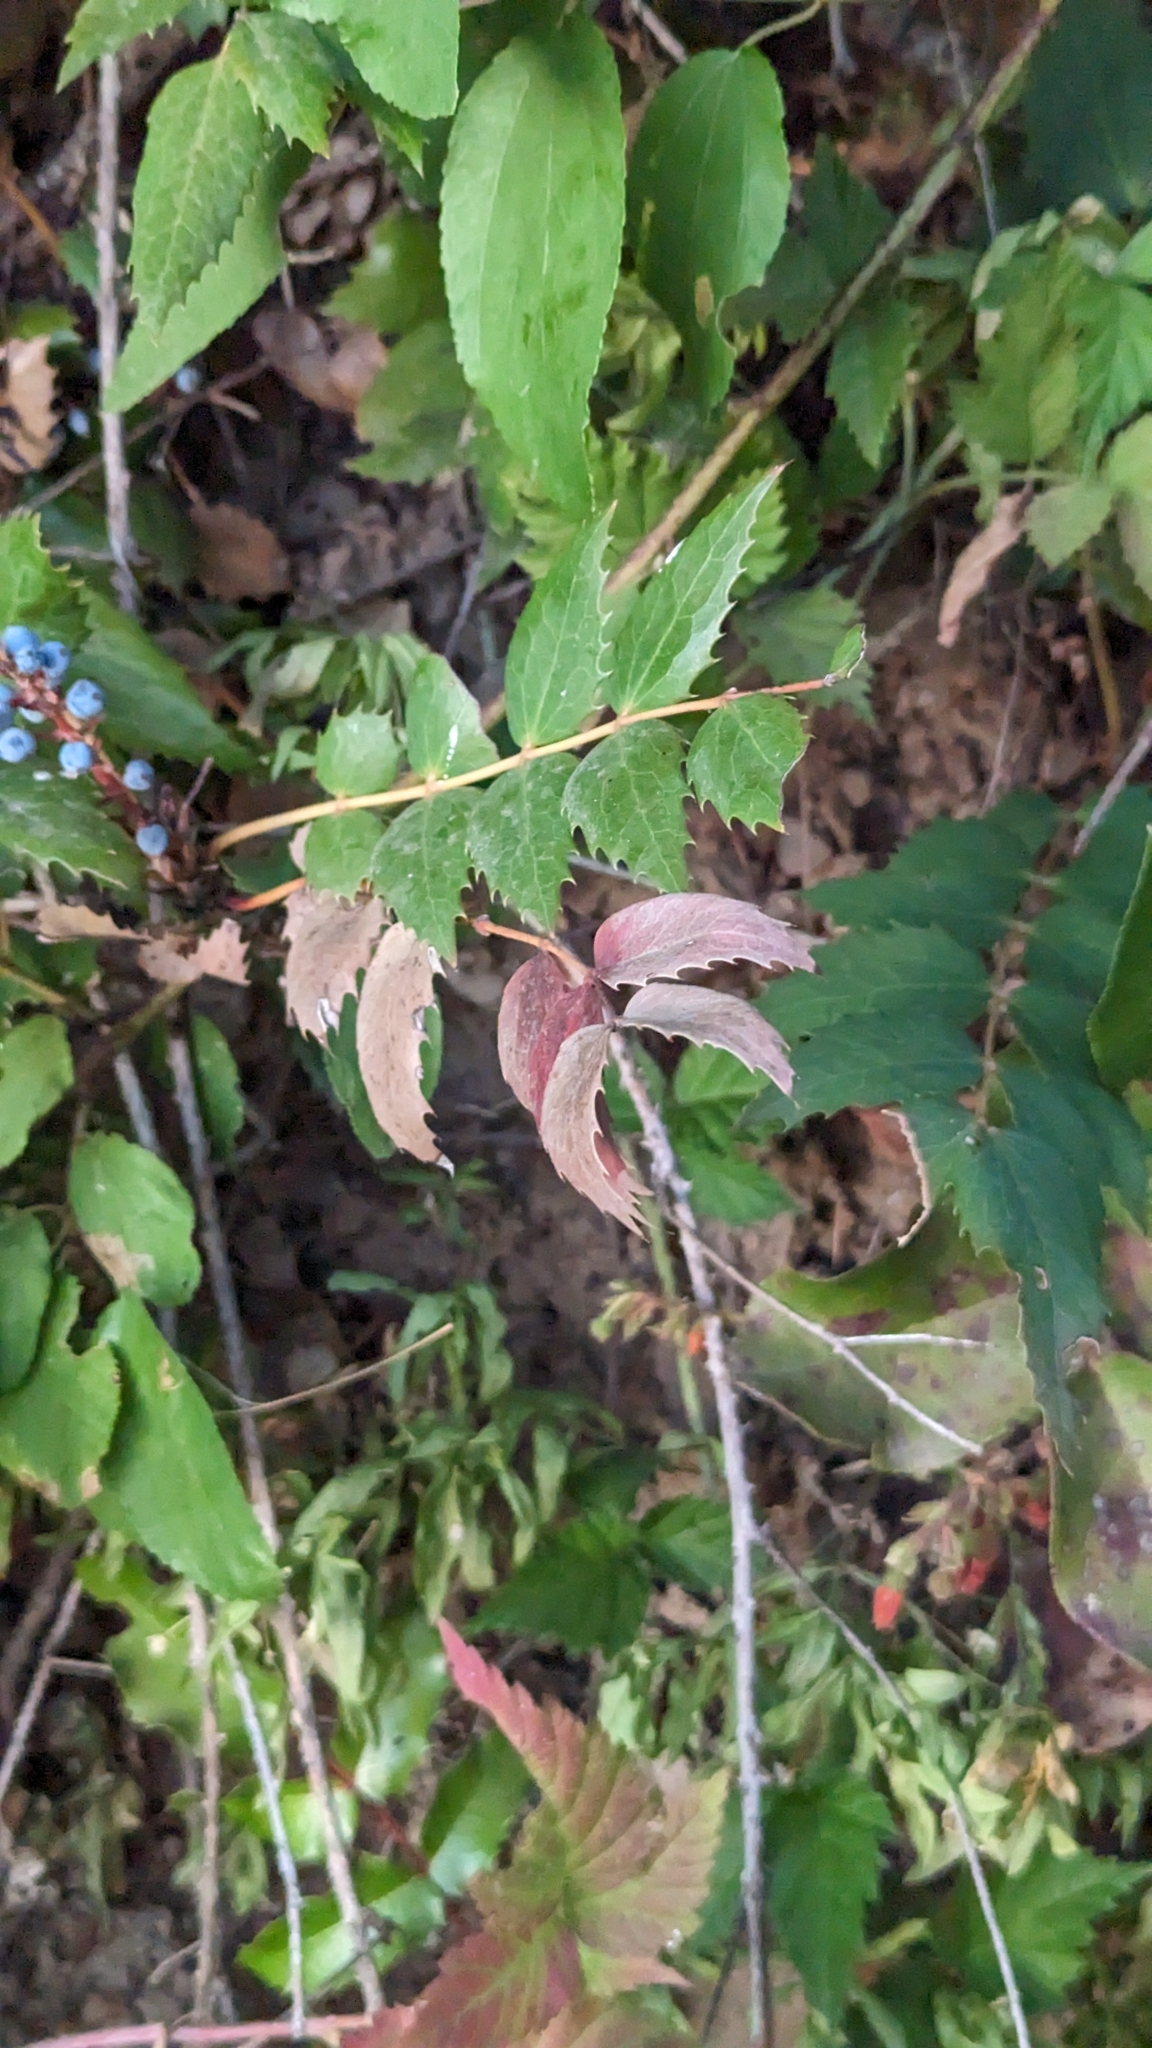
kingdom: Plantae
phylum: Tracheophyta
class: Magnoliopsida
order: Ranunculales
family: Berberidaceae
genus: Mahonia
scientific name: Mahonia nervosa
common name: Cascade oregon-grape
